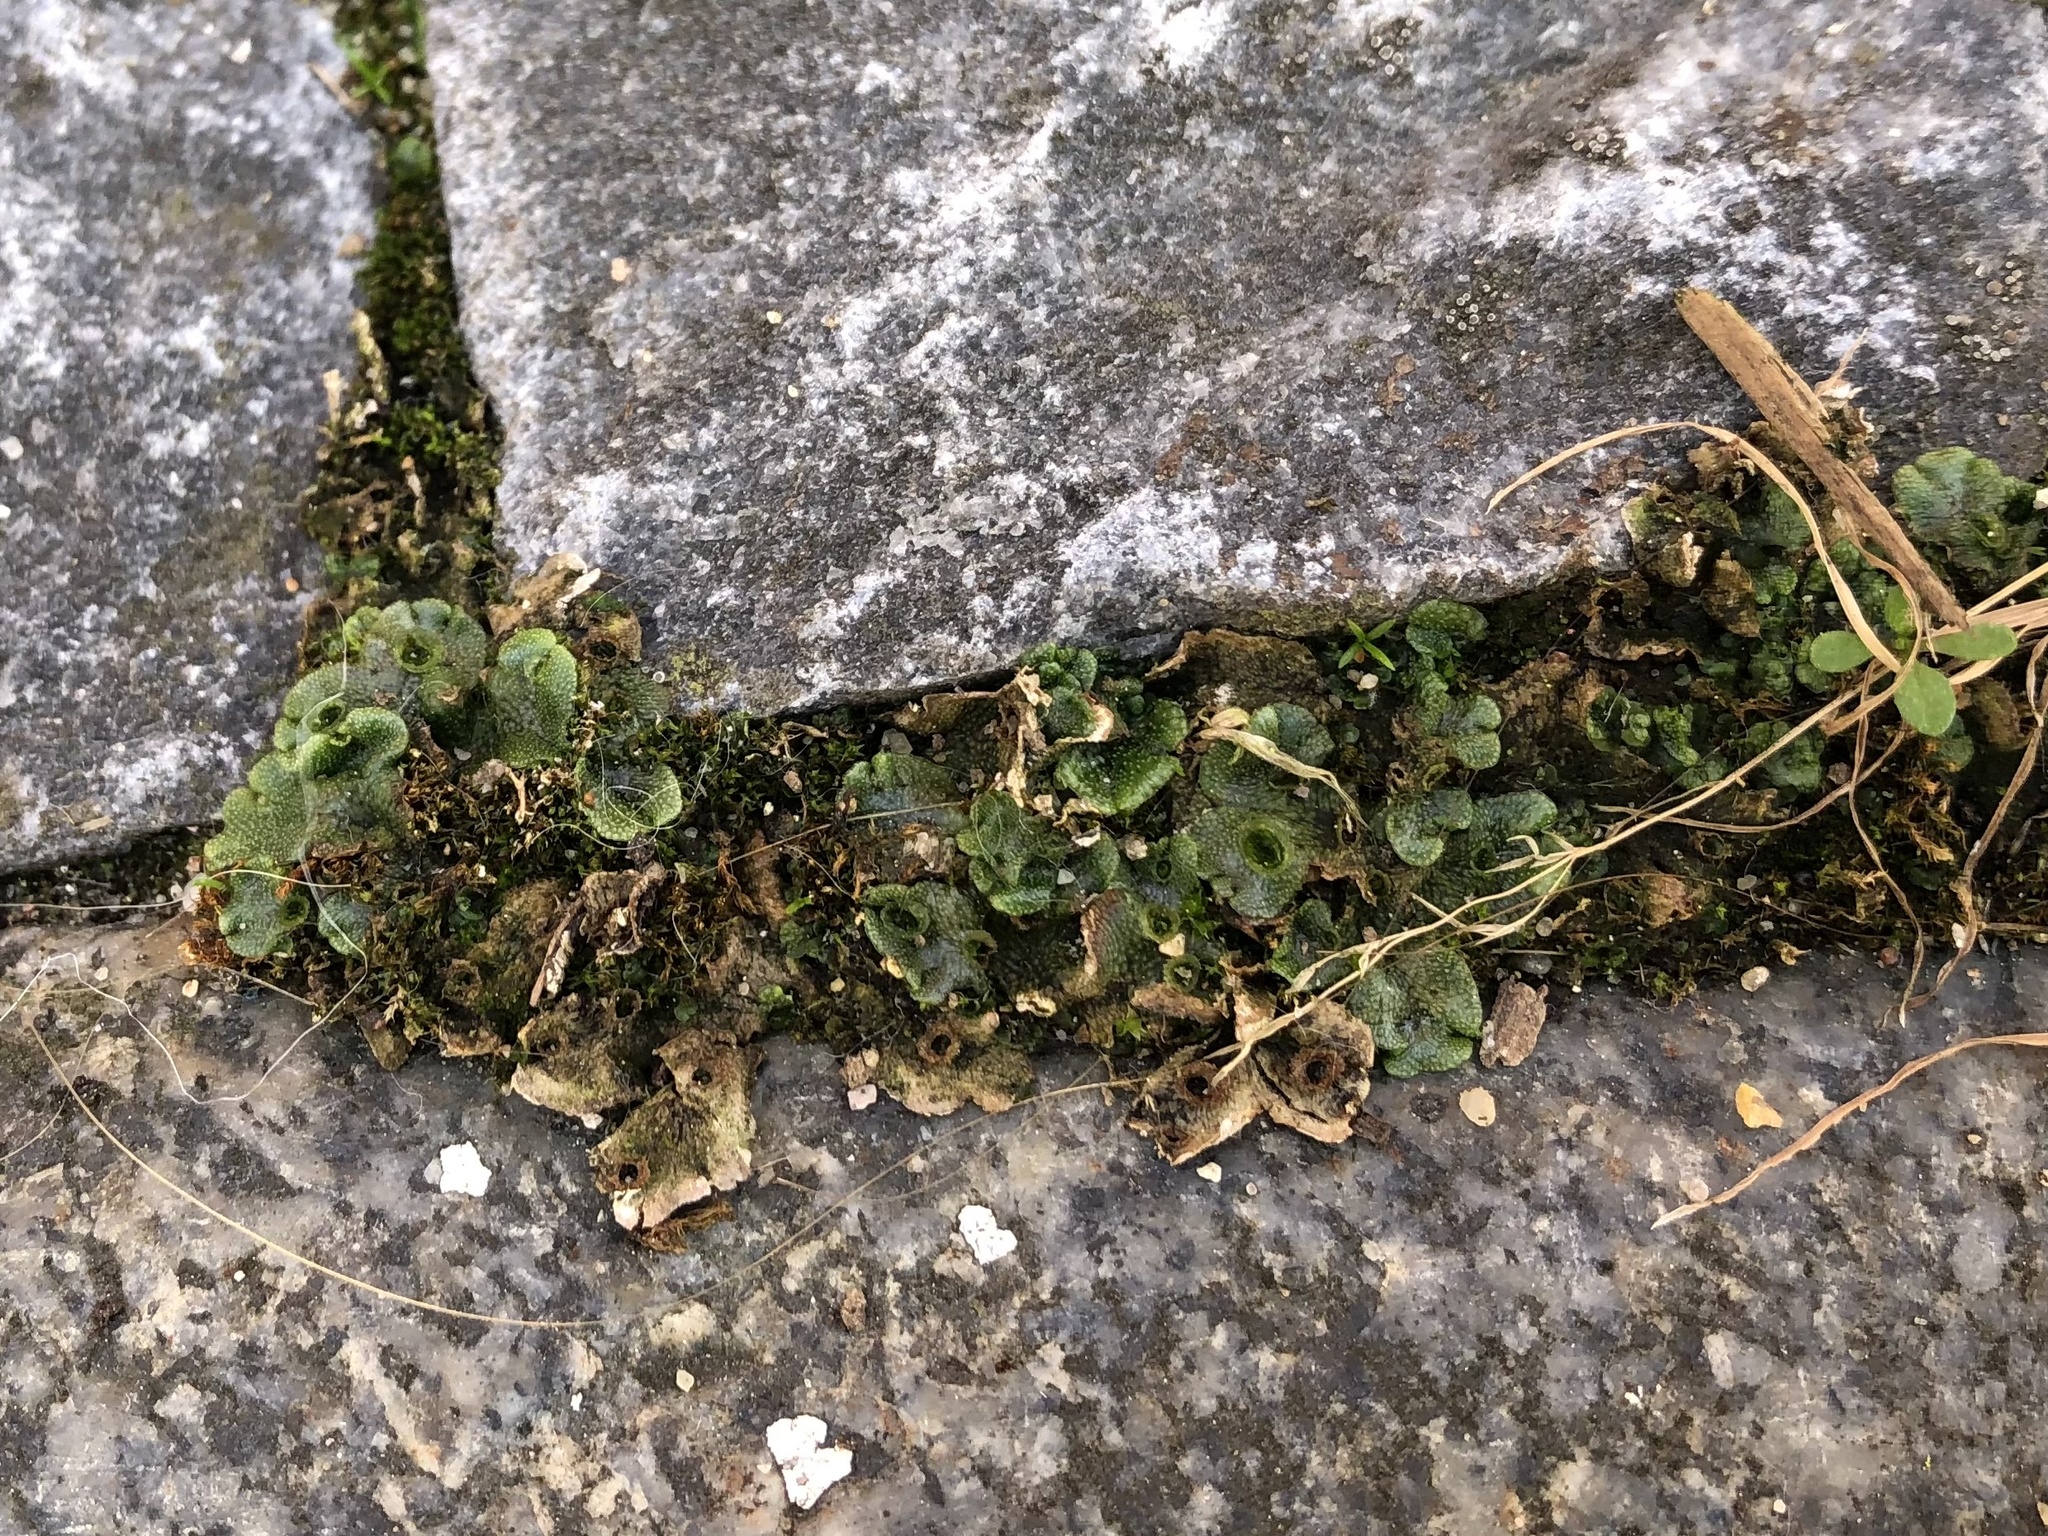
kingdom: Plantae
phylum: Marchantiophyta
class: Marchantiopsida
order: Marchantiales
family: Marchantiaceae
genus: Marchantia
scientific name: Marchantia polymorpha
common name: Common liverwort
